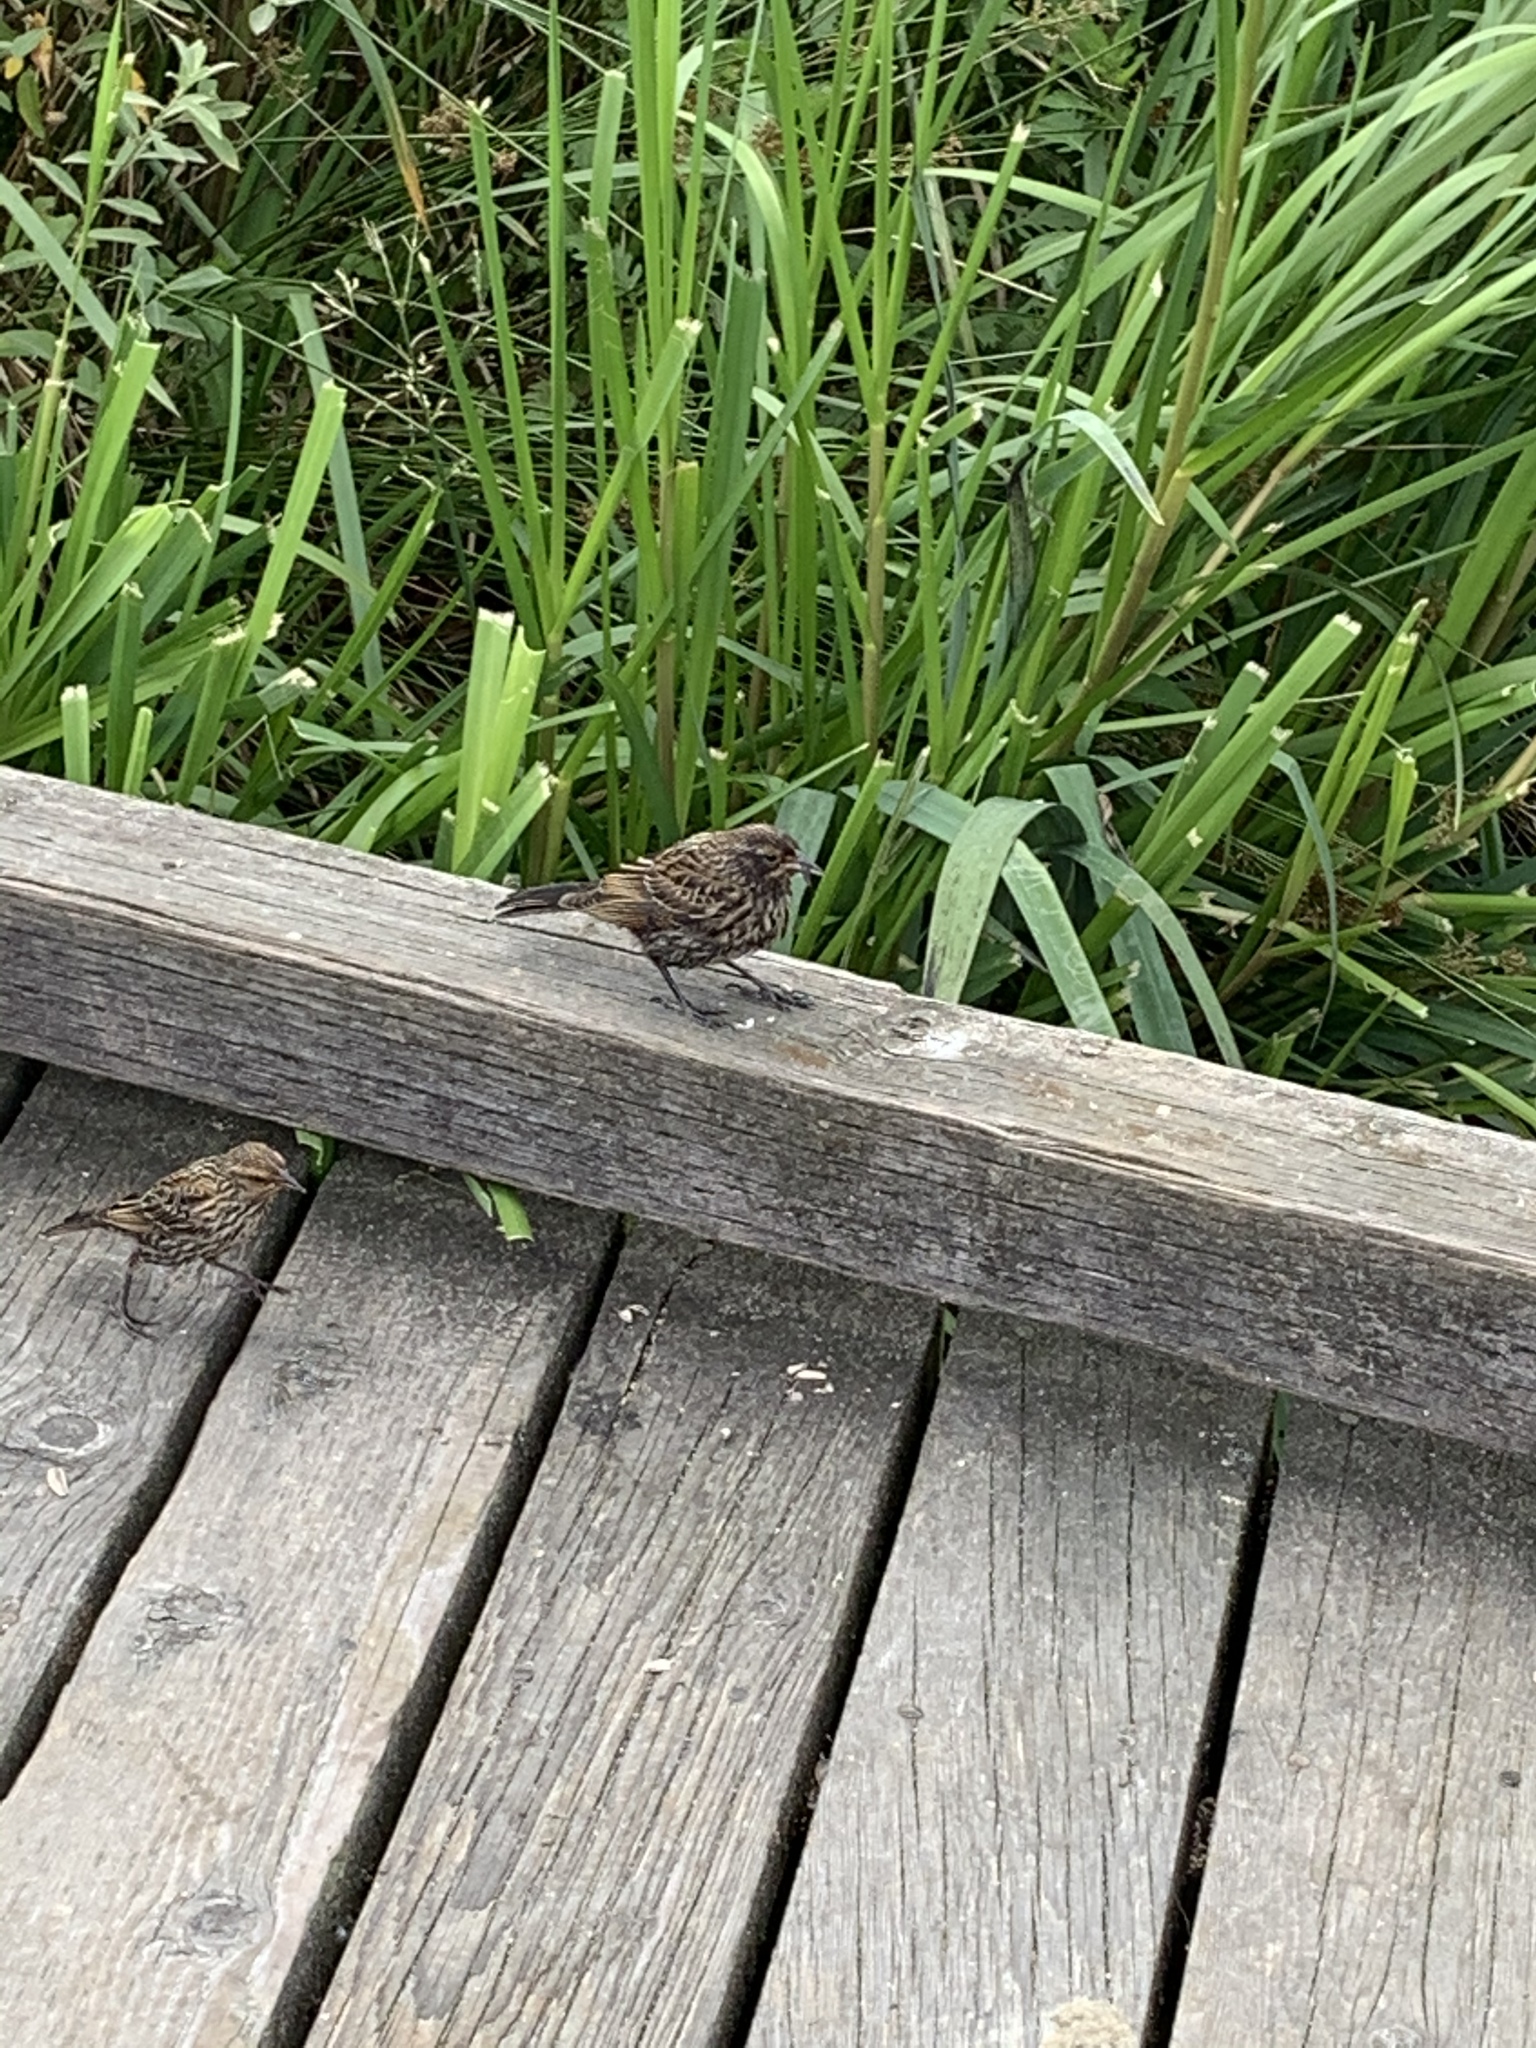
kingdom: Animalia
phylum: Chordata
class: Aves
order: Passeriformes
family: Icteridae
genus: Agelaius
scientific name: Agelaius phoeniceus
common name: Red-winged blackbird
